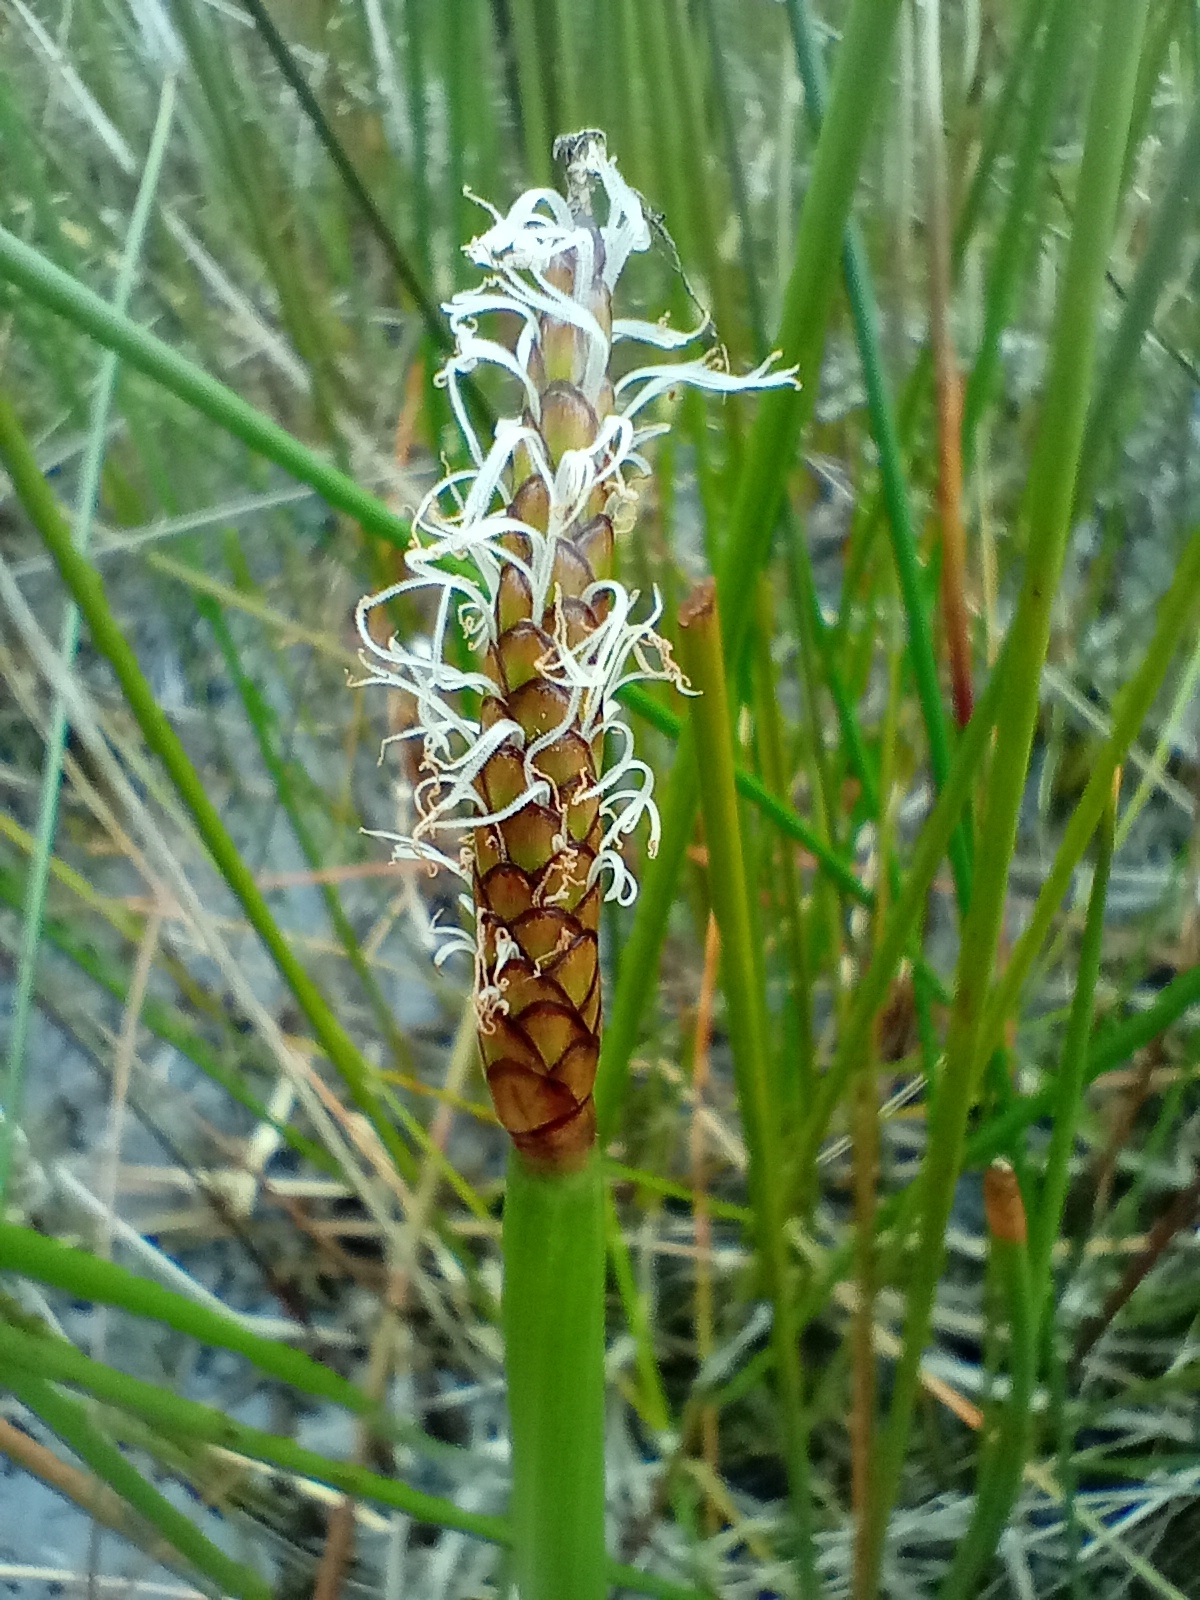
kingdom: Plantae
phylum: Tracheophyta
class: Liliopsida
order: Poales
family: Cyperaceae
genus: Eleocharis
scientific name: Eleocharis sphacelata
